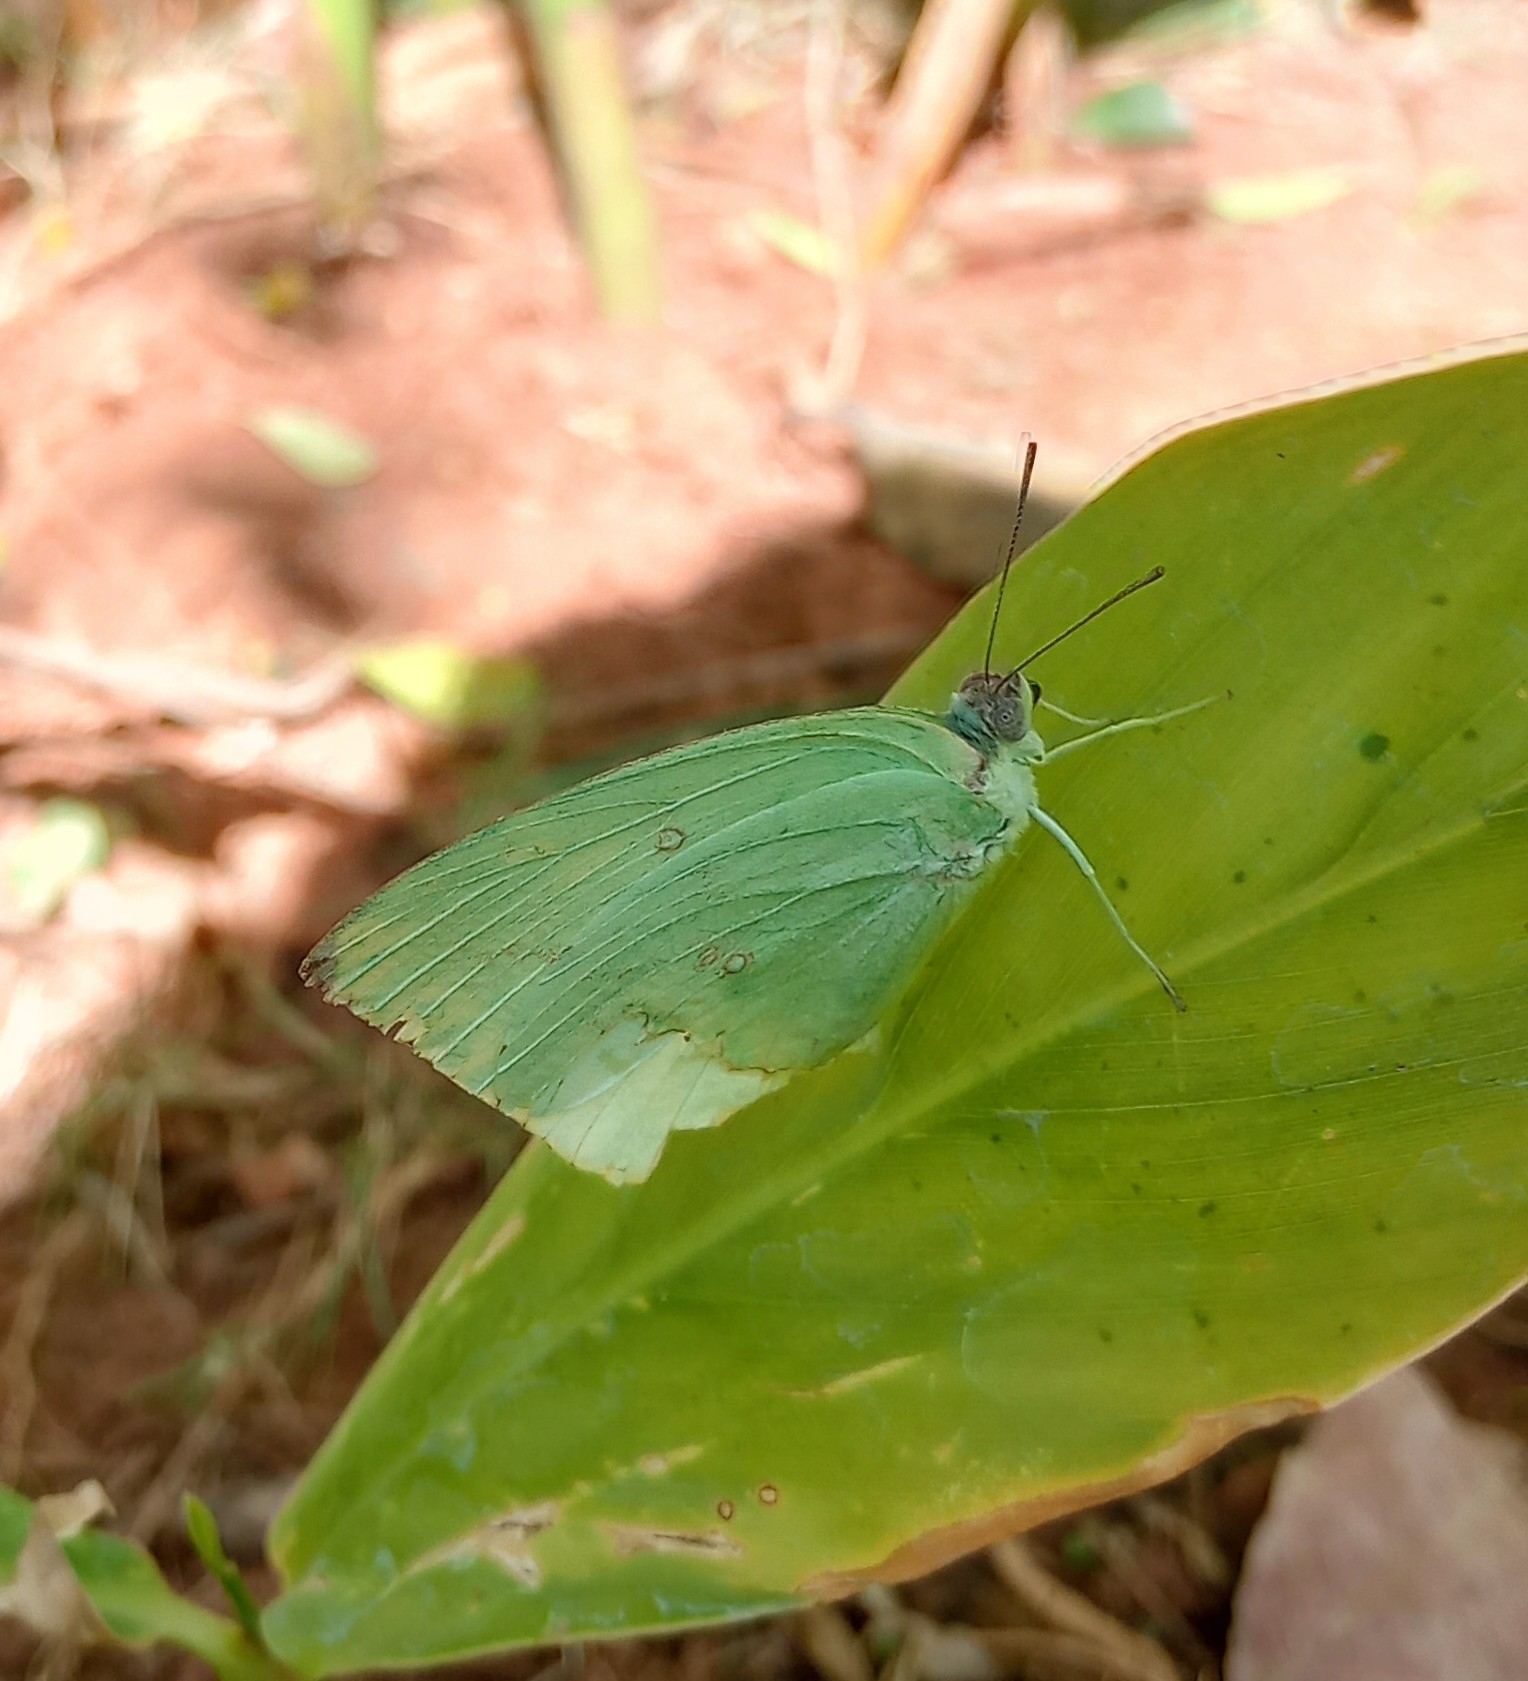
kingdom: Animalia
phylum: Arthropoda
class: Insecta
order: Lepidoptera
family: Pieridae
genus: Catopsilia
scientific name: Catopsilia pyranthe
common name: Mottled emigrant
